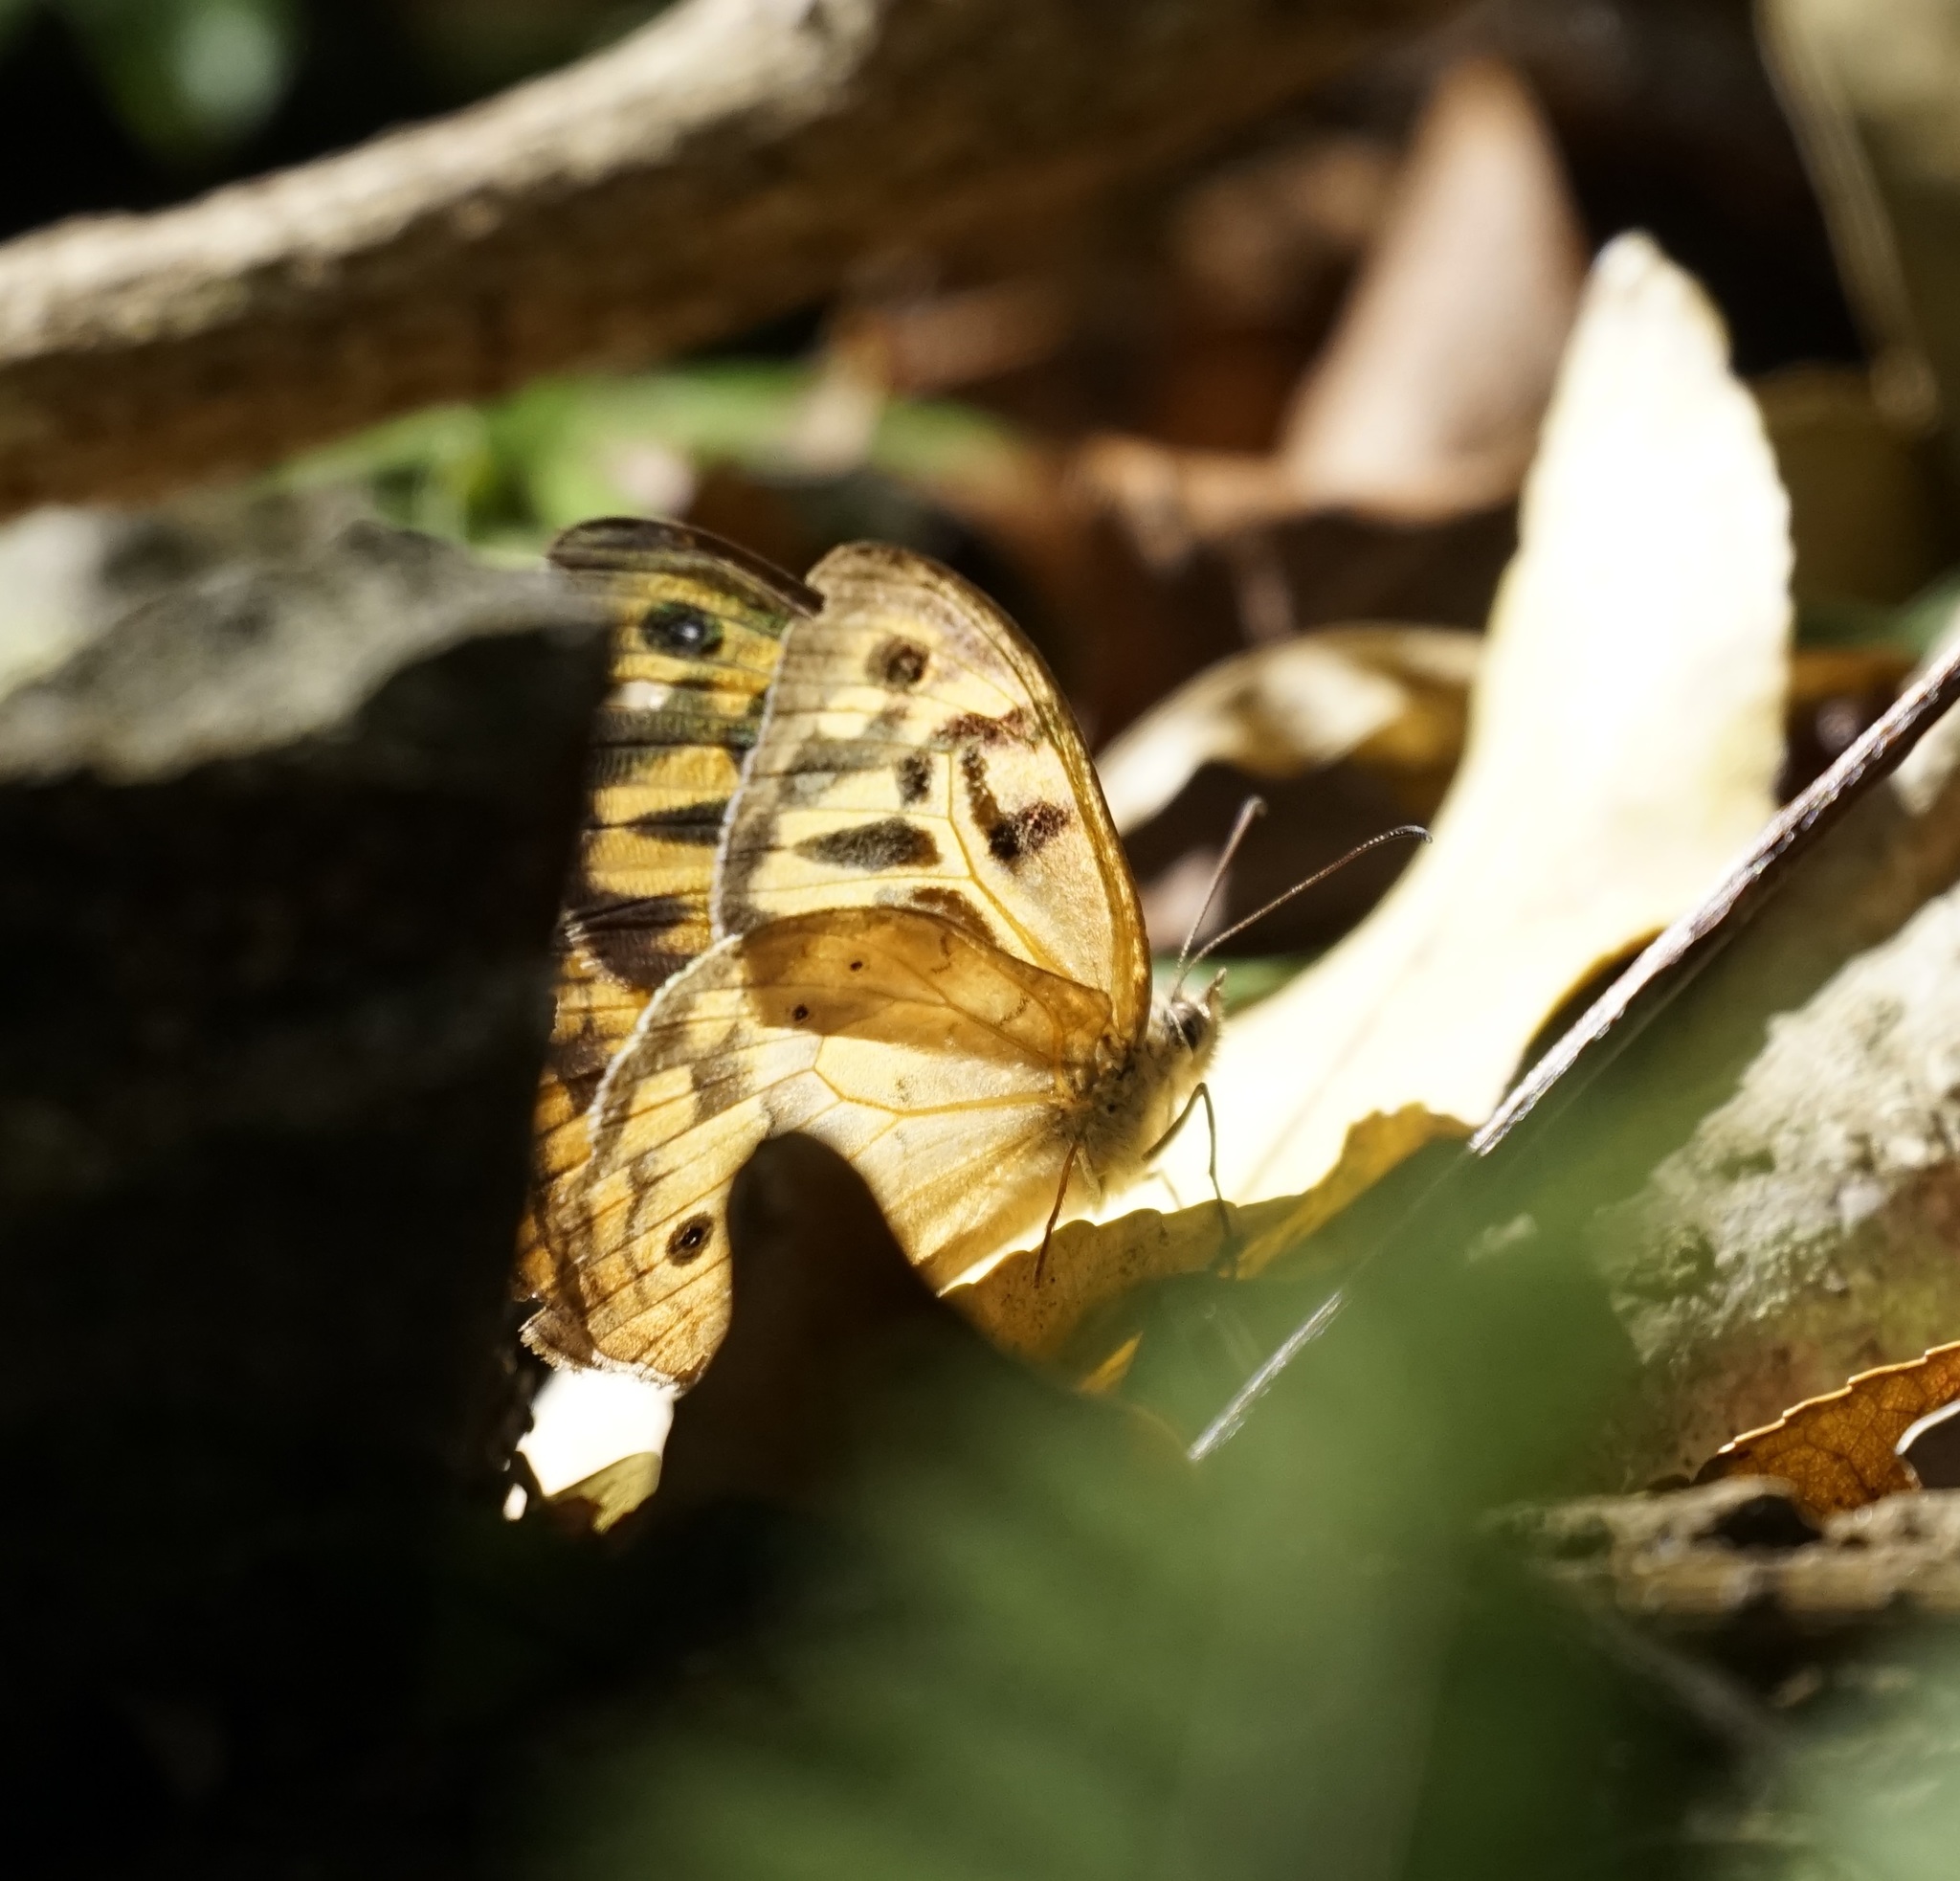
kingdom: Animalia
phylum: Arthropoda
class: Insecta
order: Lepidoptera
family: Nymphalidae
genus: Heteronympha
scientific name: Heteronympha merope
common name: Common brown
